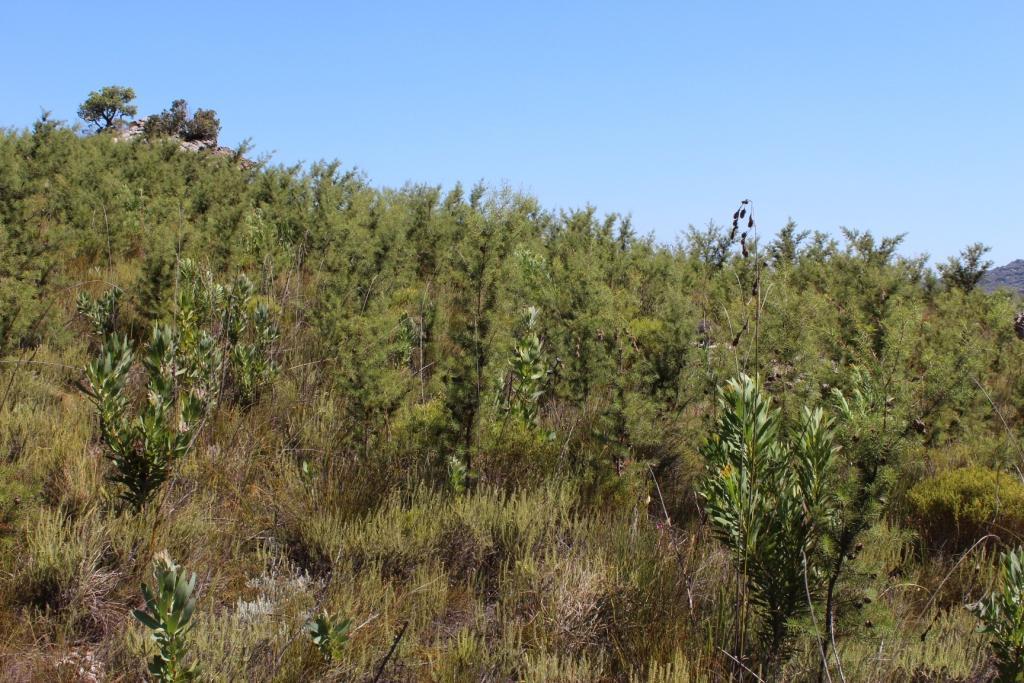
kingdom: Plantae
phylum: Tracheophyta
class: Magnoliopsida
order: Proteales
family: Proteaceae
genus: Hakea
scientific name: Hakea sericea
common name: Needle bush
